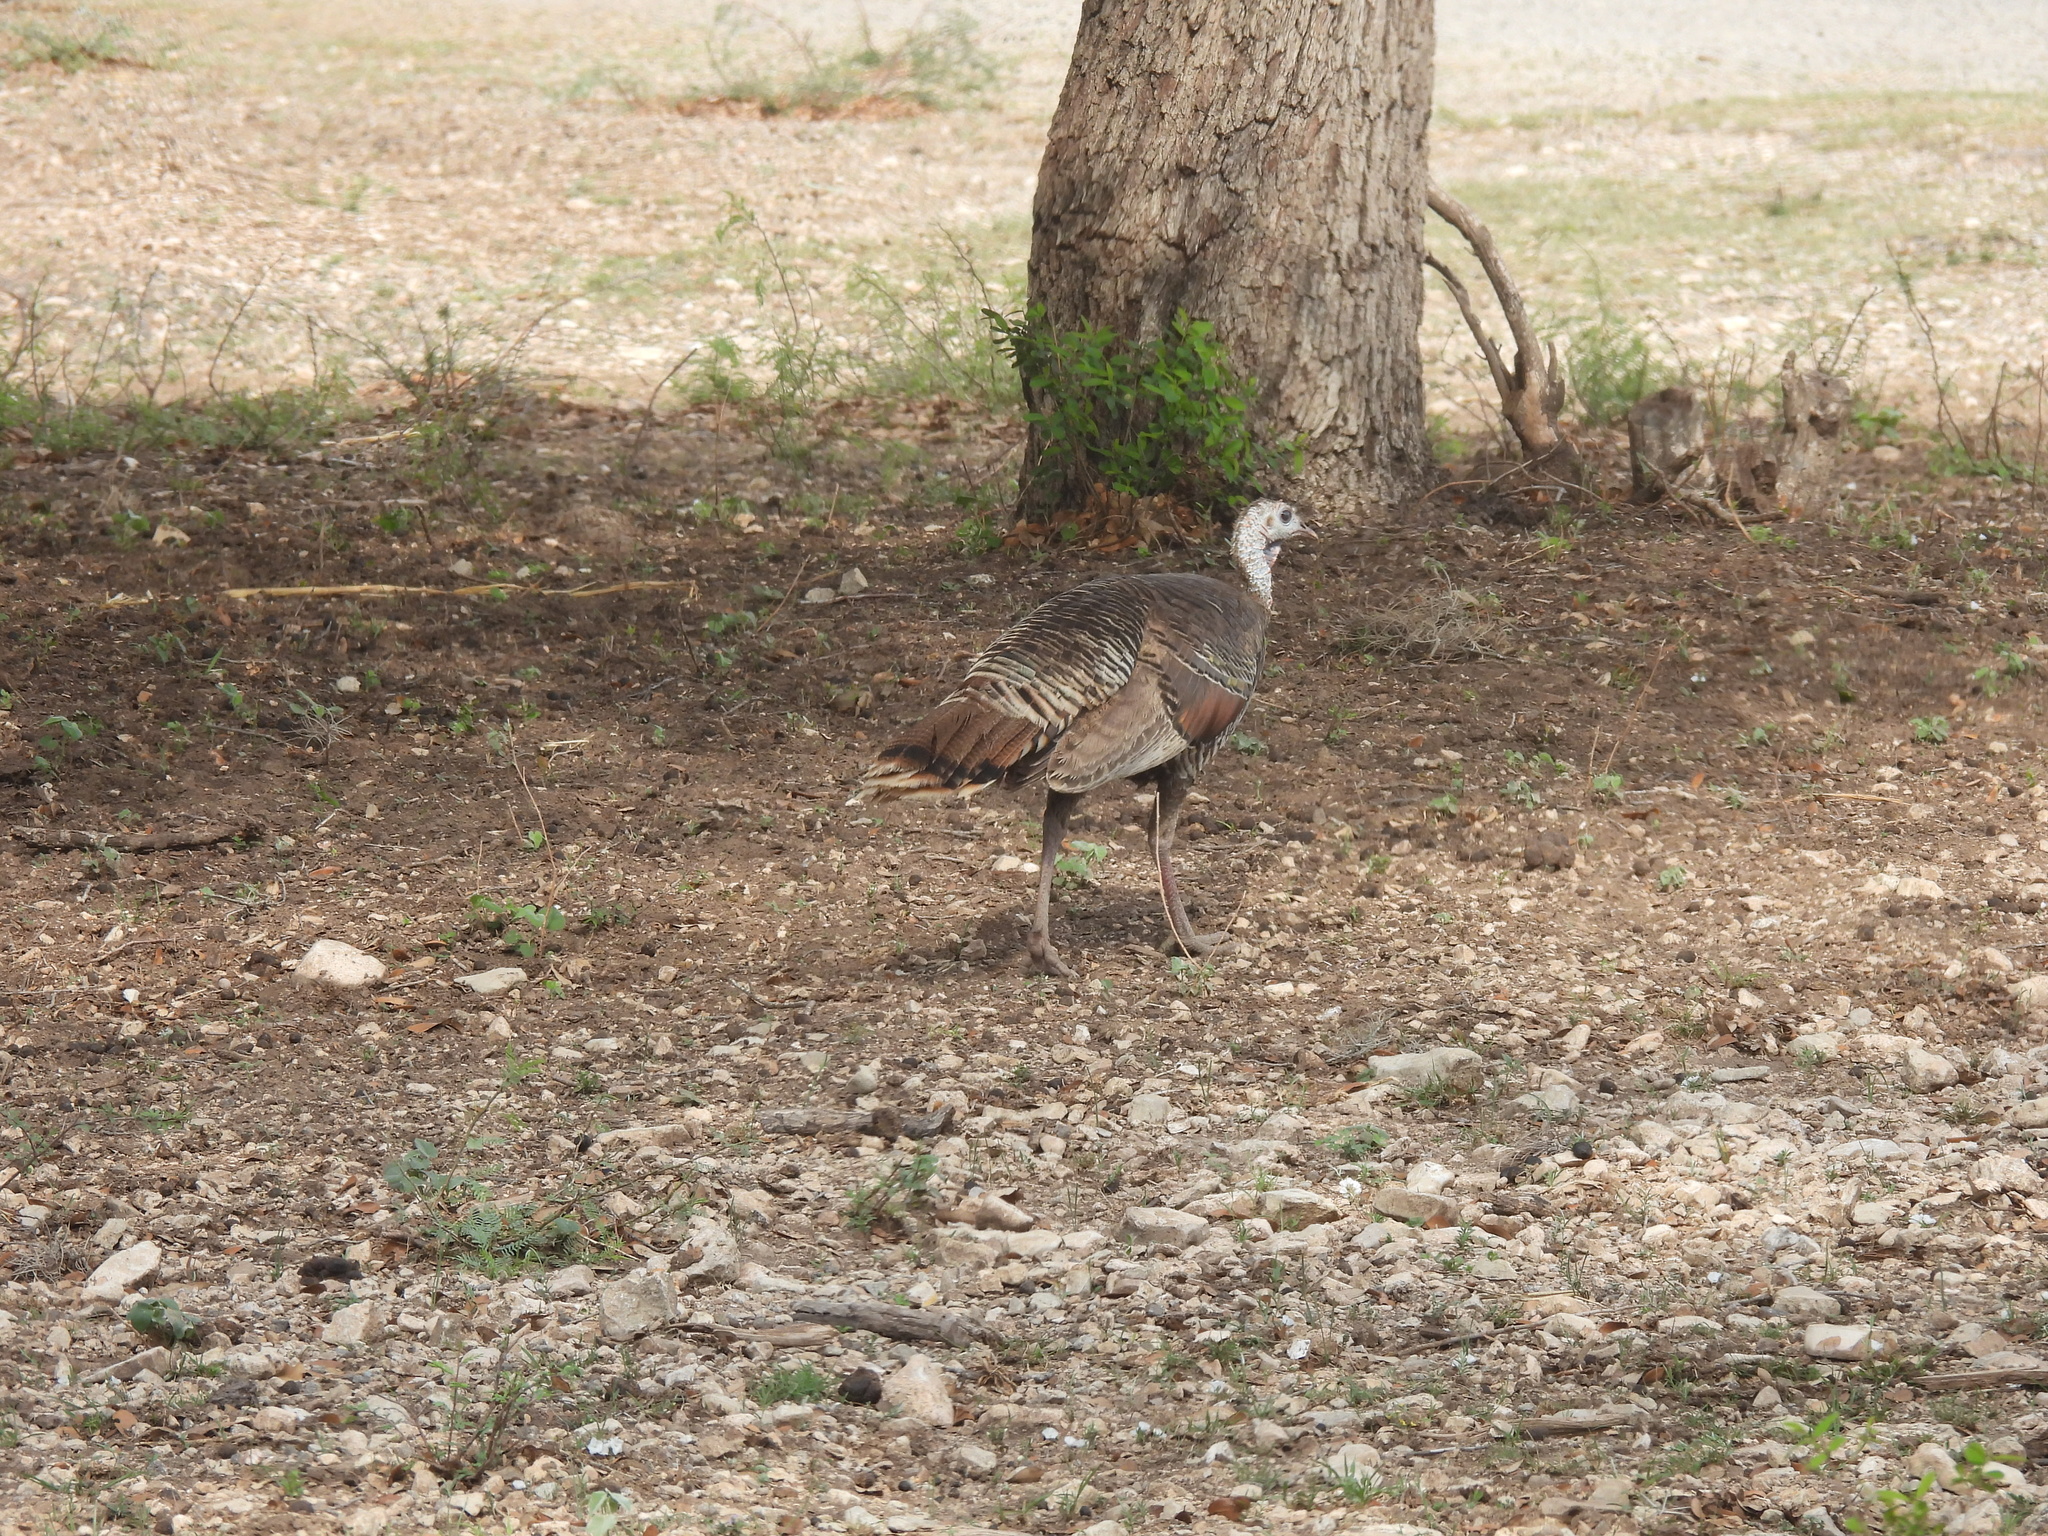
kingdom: Animalia
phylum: Chordata
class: Aves
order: Galliformes
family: Phasianidae
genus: Meleagris
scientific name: Meleagris gallopavo
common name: Wild turkey
